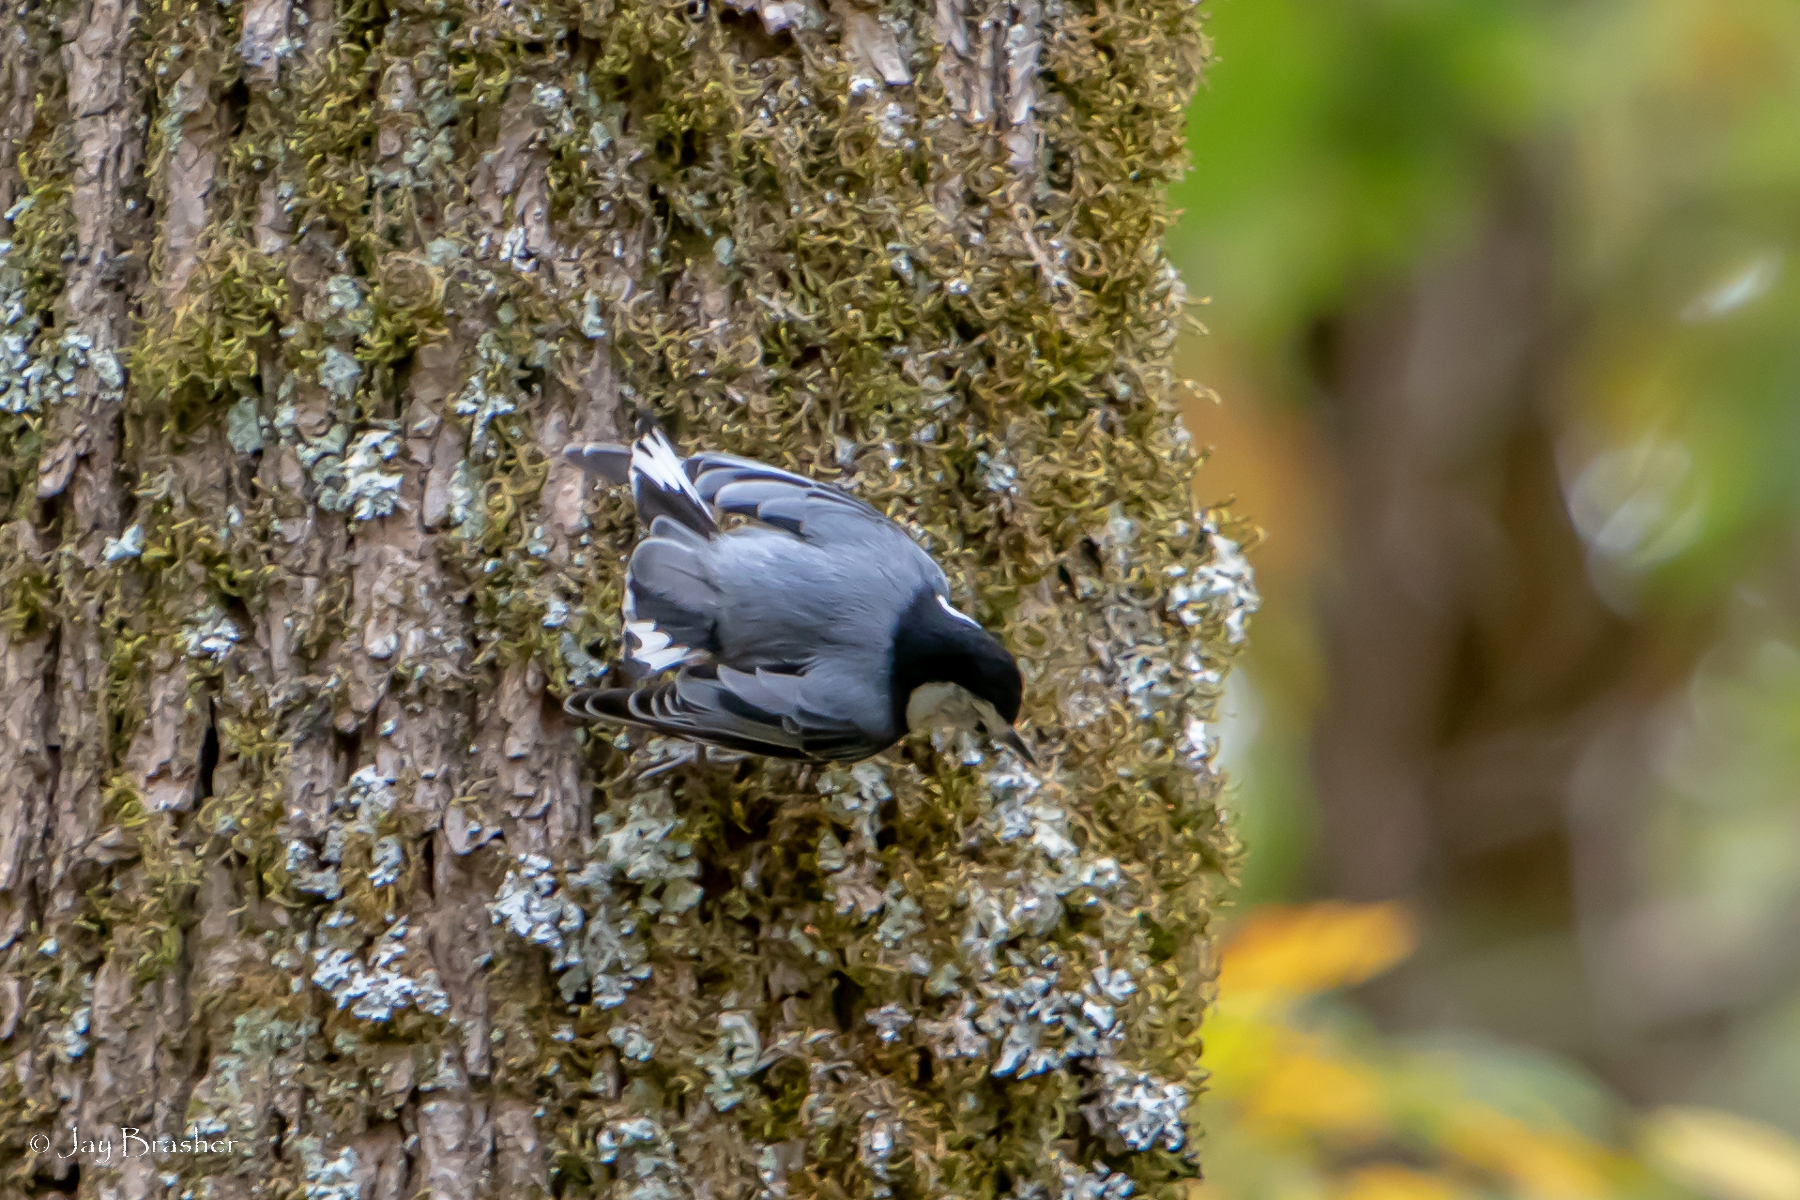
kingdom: Animalia
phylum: Chordata
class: Aves
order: Passeriformes
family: Sittidae
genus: Sitta
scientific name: Sitta carolinensis
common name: White-breasted nuthatch
